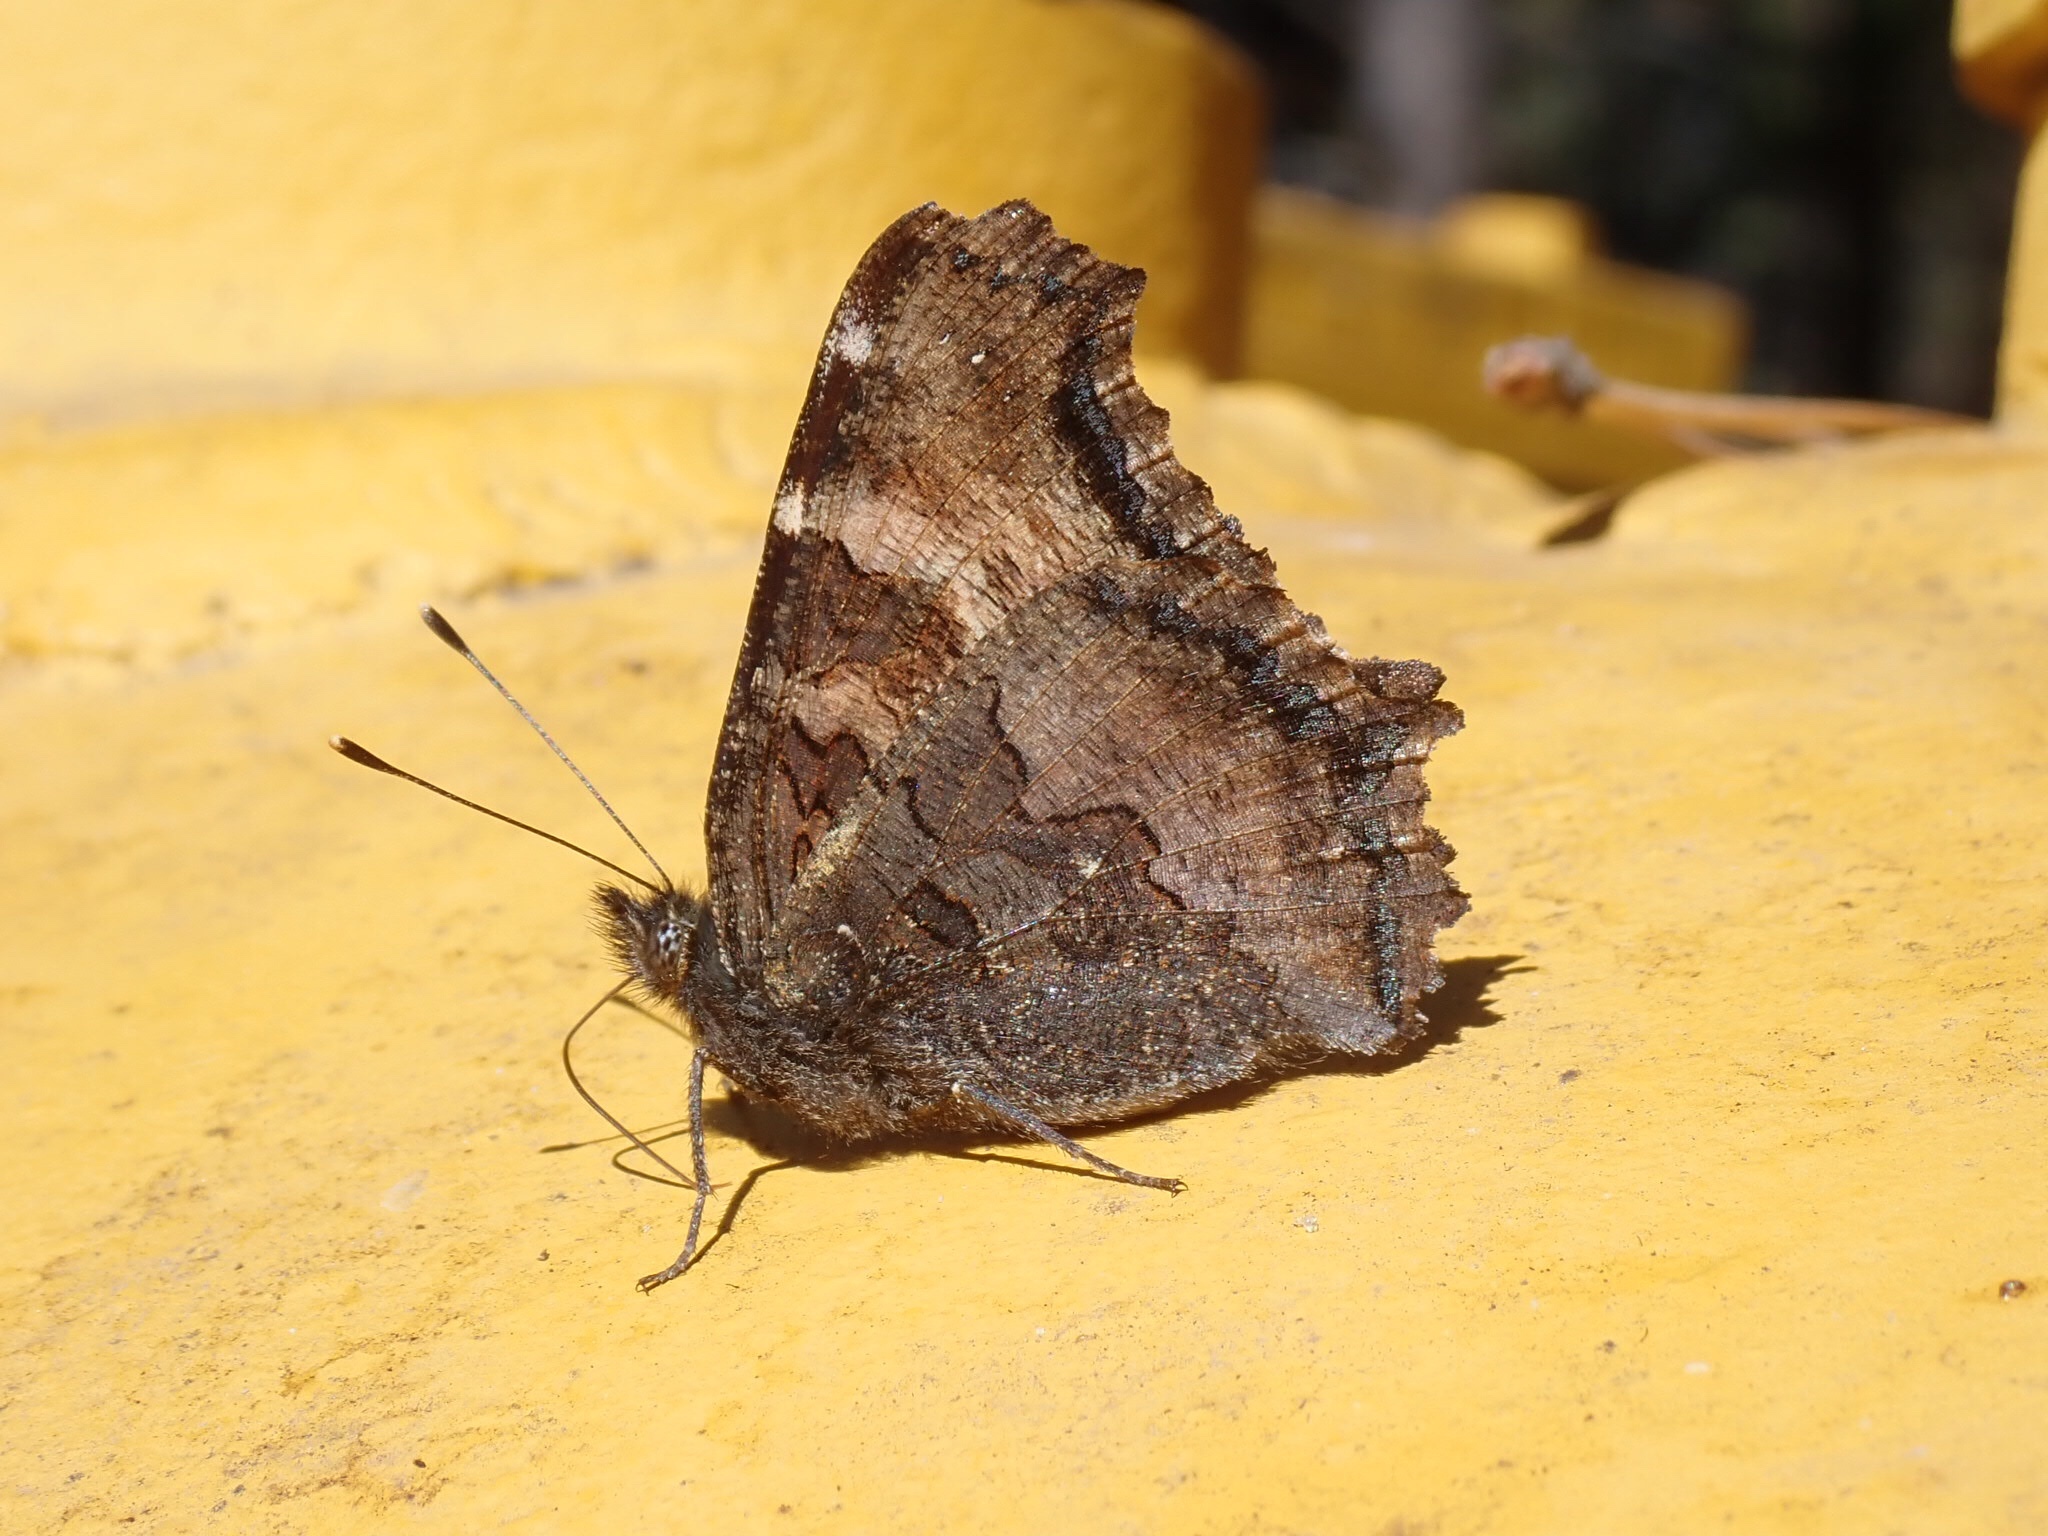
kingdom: Animalia
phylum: Arthropoda
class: Insecta
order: Lepidoptera
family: Nymphalidae
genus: Nymphalis
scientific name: Nymphalis californica
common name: California tortoiseshell
